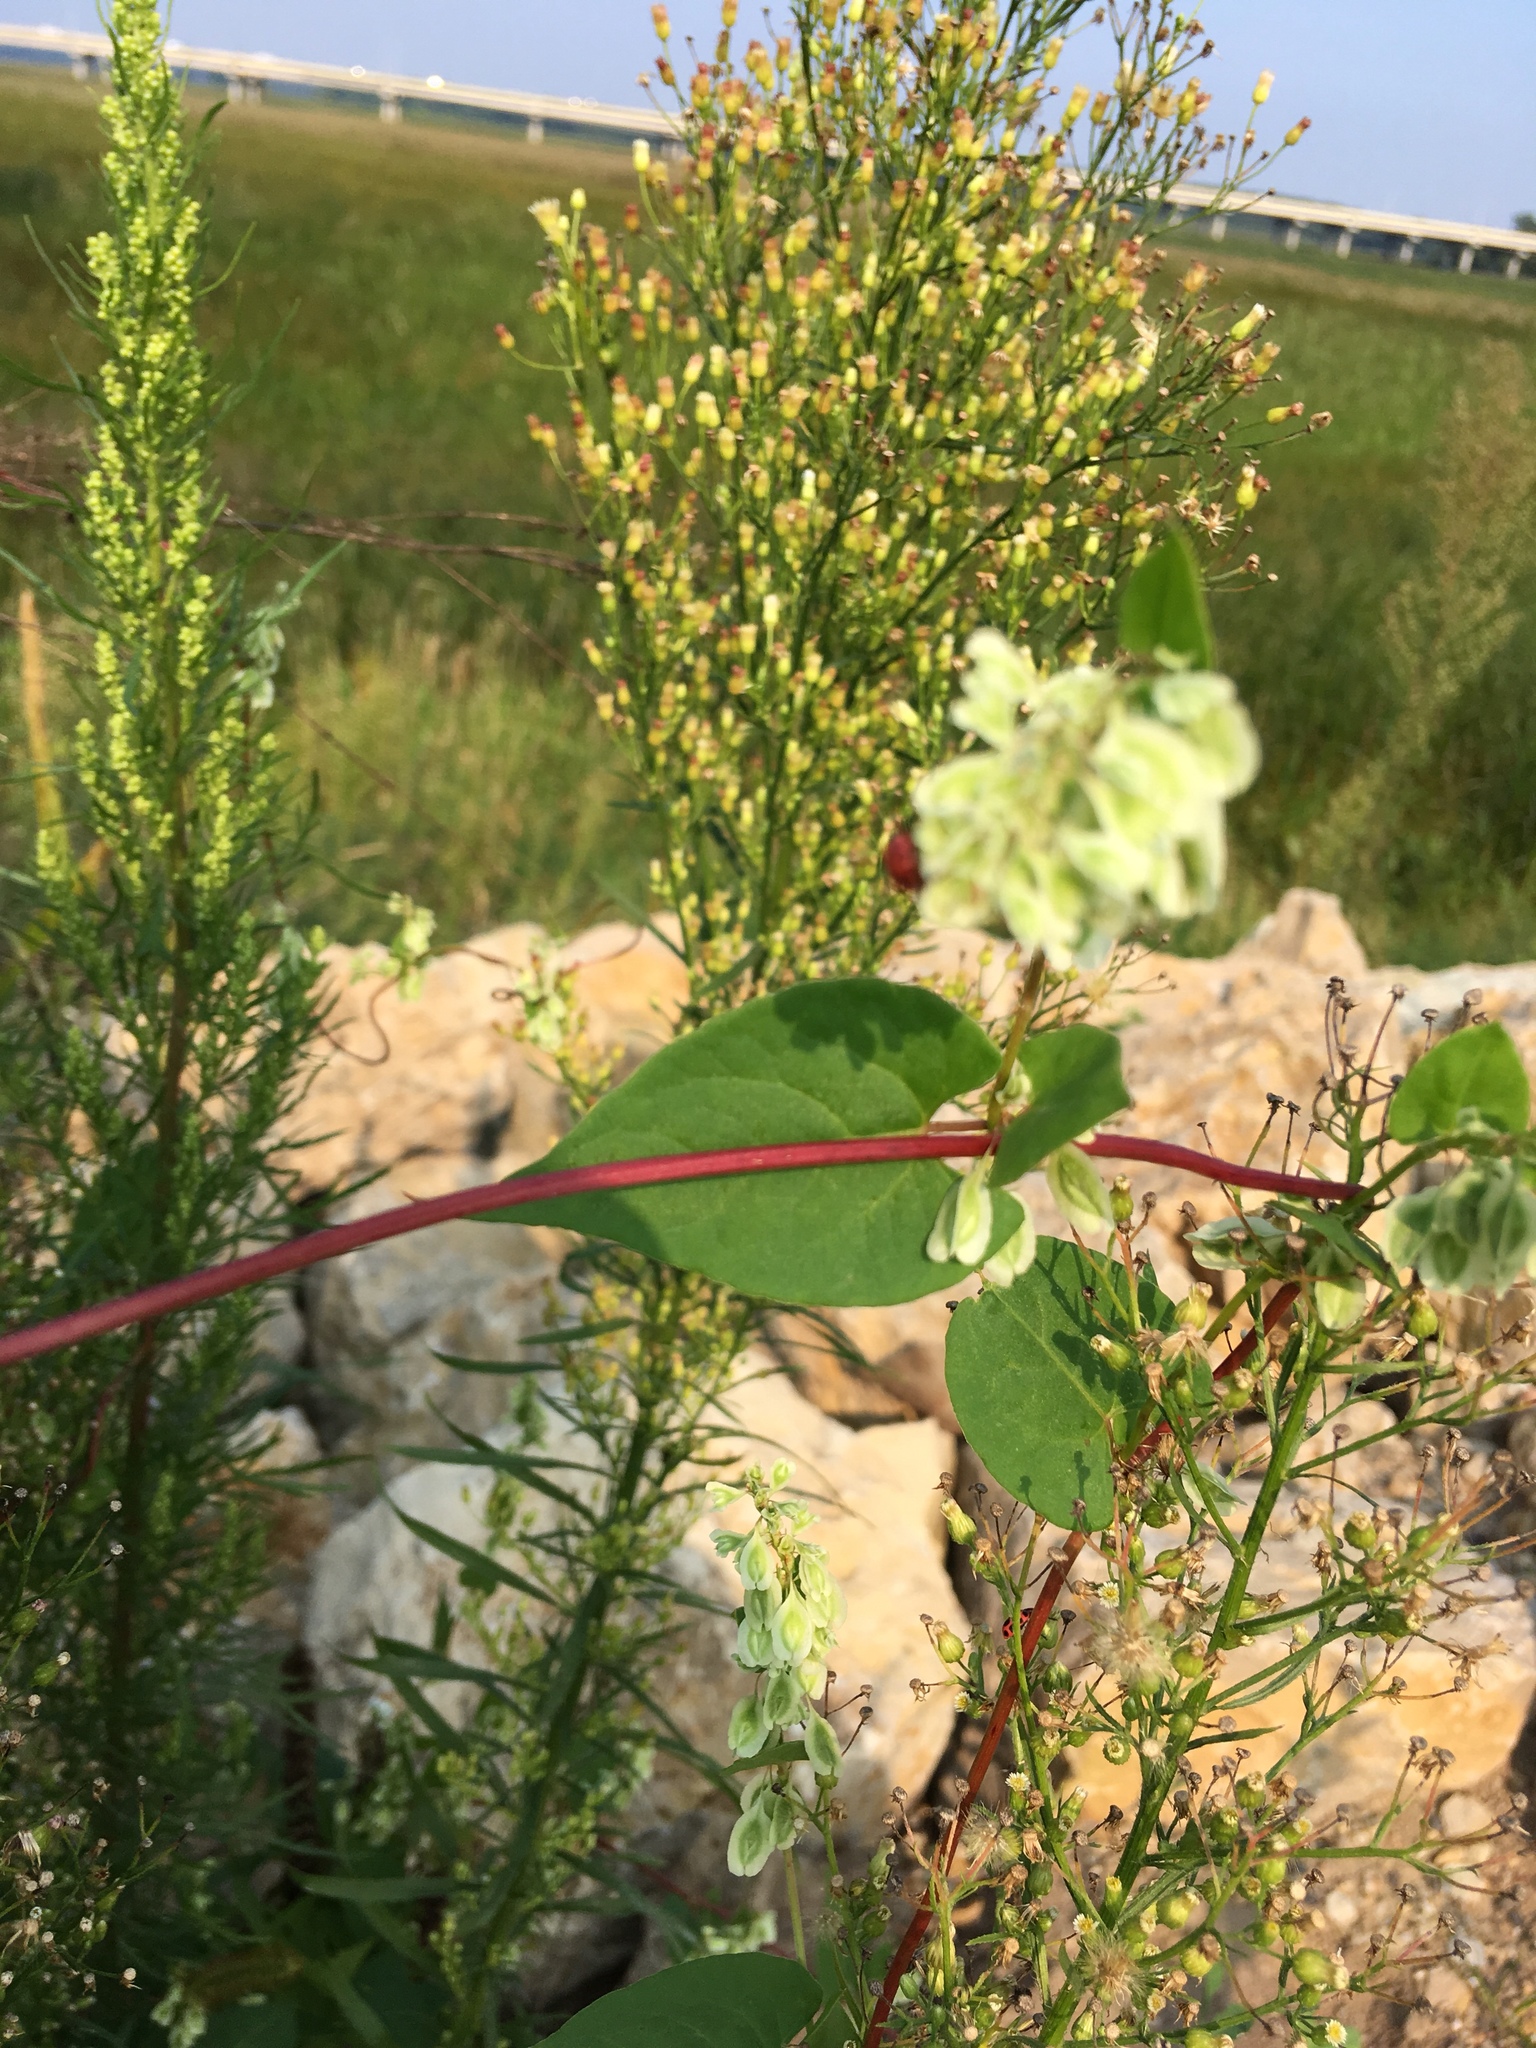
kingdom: Plantae
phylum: Tracheophyta
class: Magnoliopsida
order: Caryophyllales
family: Polygonaceae
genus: Fallopia
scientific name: Fallopia scandens
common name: Climbing false buckwheat
